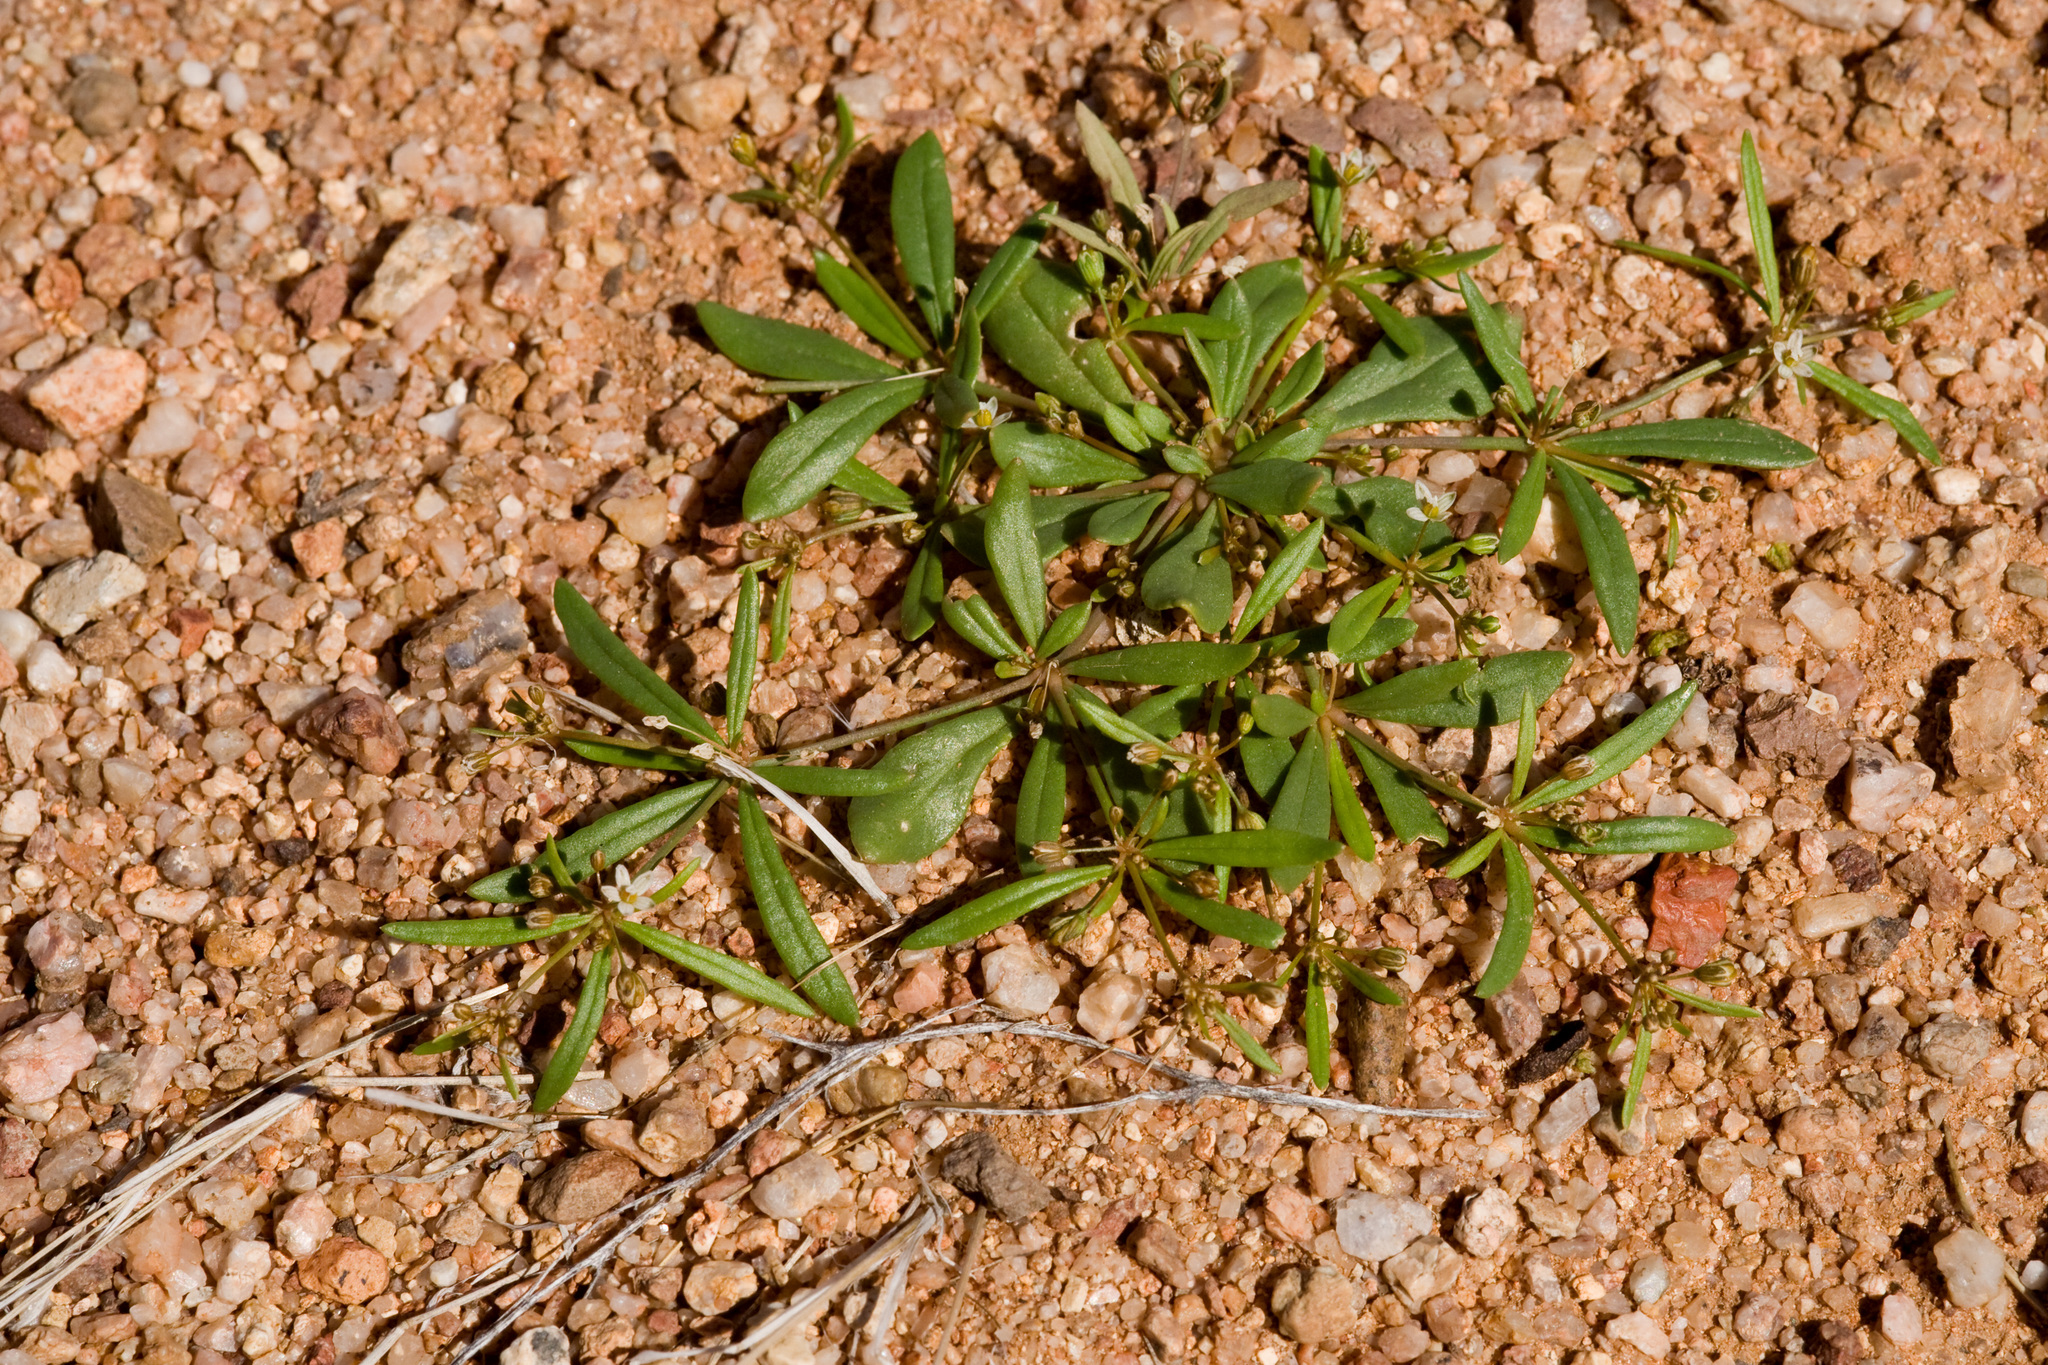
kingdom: Plantae
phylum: Tracheophyta
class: Magnoliopsida
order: Caryophyllales
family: Molluginaceae
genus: Mollugo
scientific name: Mollugo verticillata
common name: Green carpetweed
